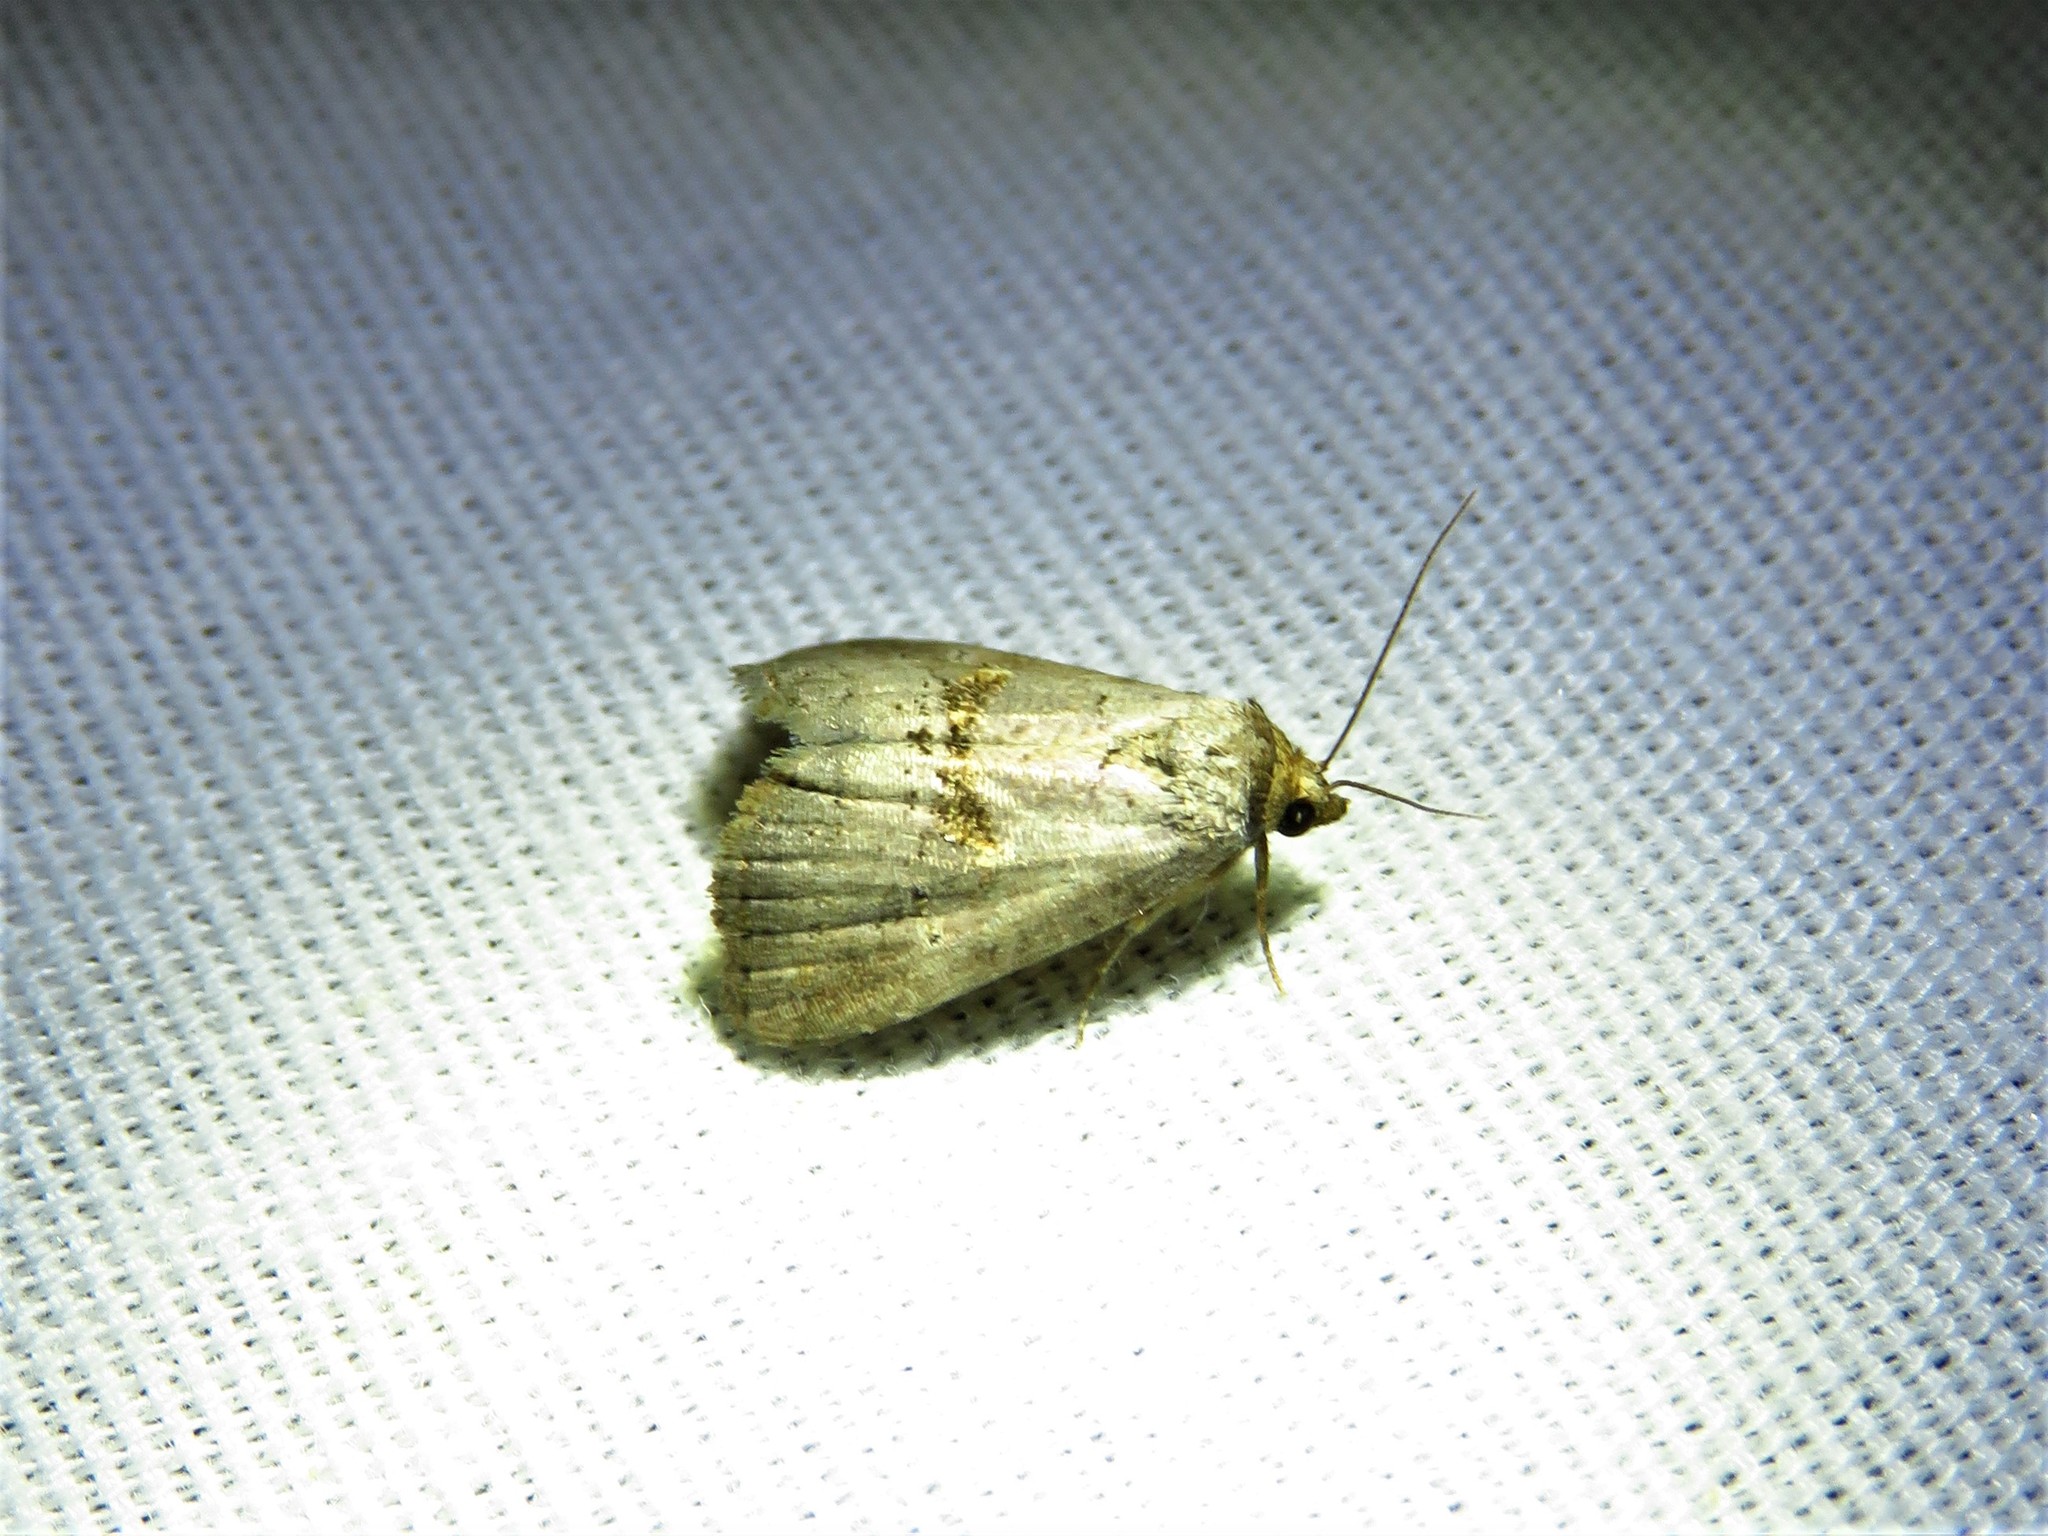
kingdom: Animalia
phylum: Arthropoda
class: Insecta
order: Lepidoptera
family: Erebidae
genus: Hyperstrotia
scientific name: Hyperstrotia nana
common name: White-lined graylet
